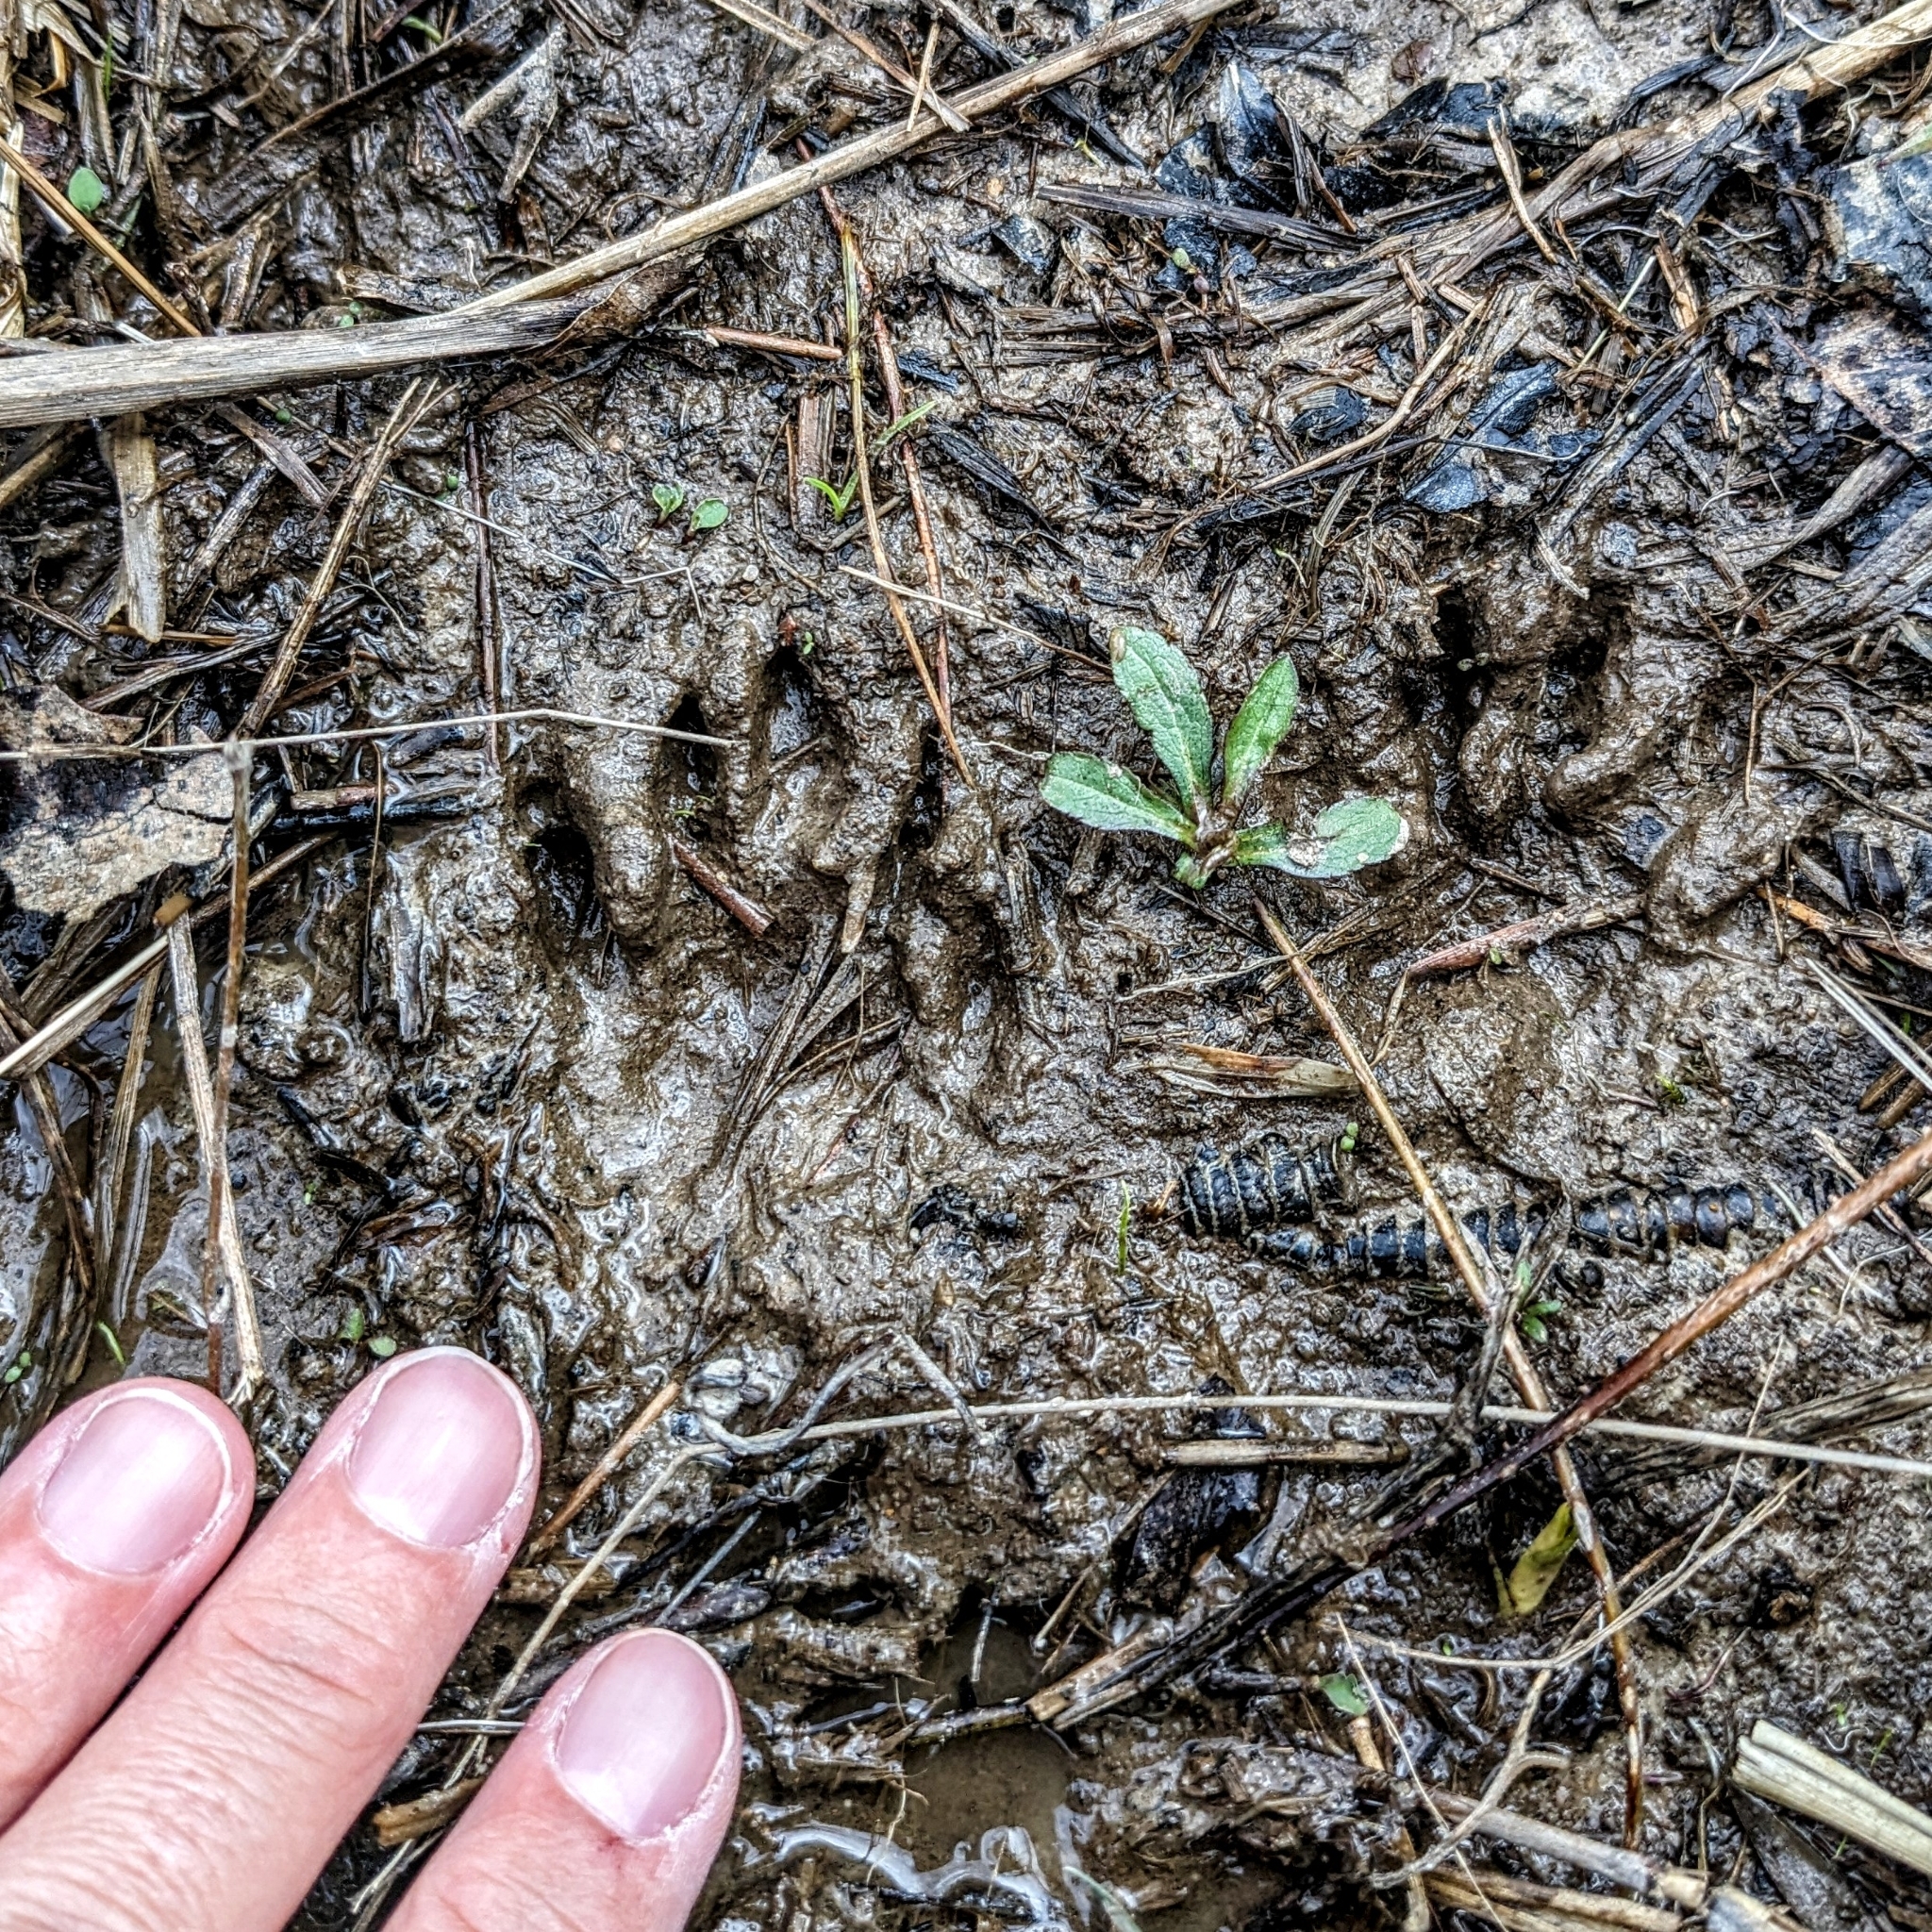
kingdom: Animalia
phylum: Chordata
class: Mammalia
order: Carnivora
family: Procyonidae
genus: Procyon
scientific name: Procyon lotor
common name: Raccoon
